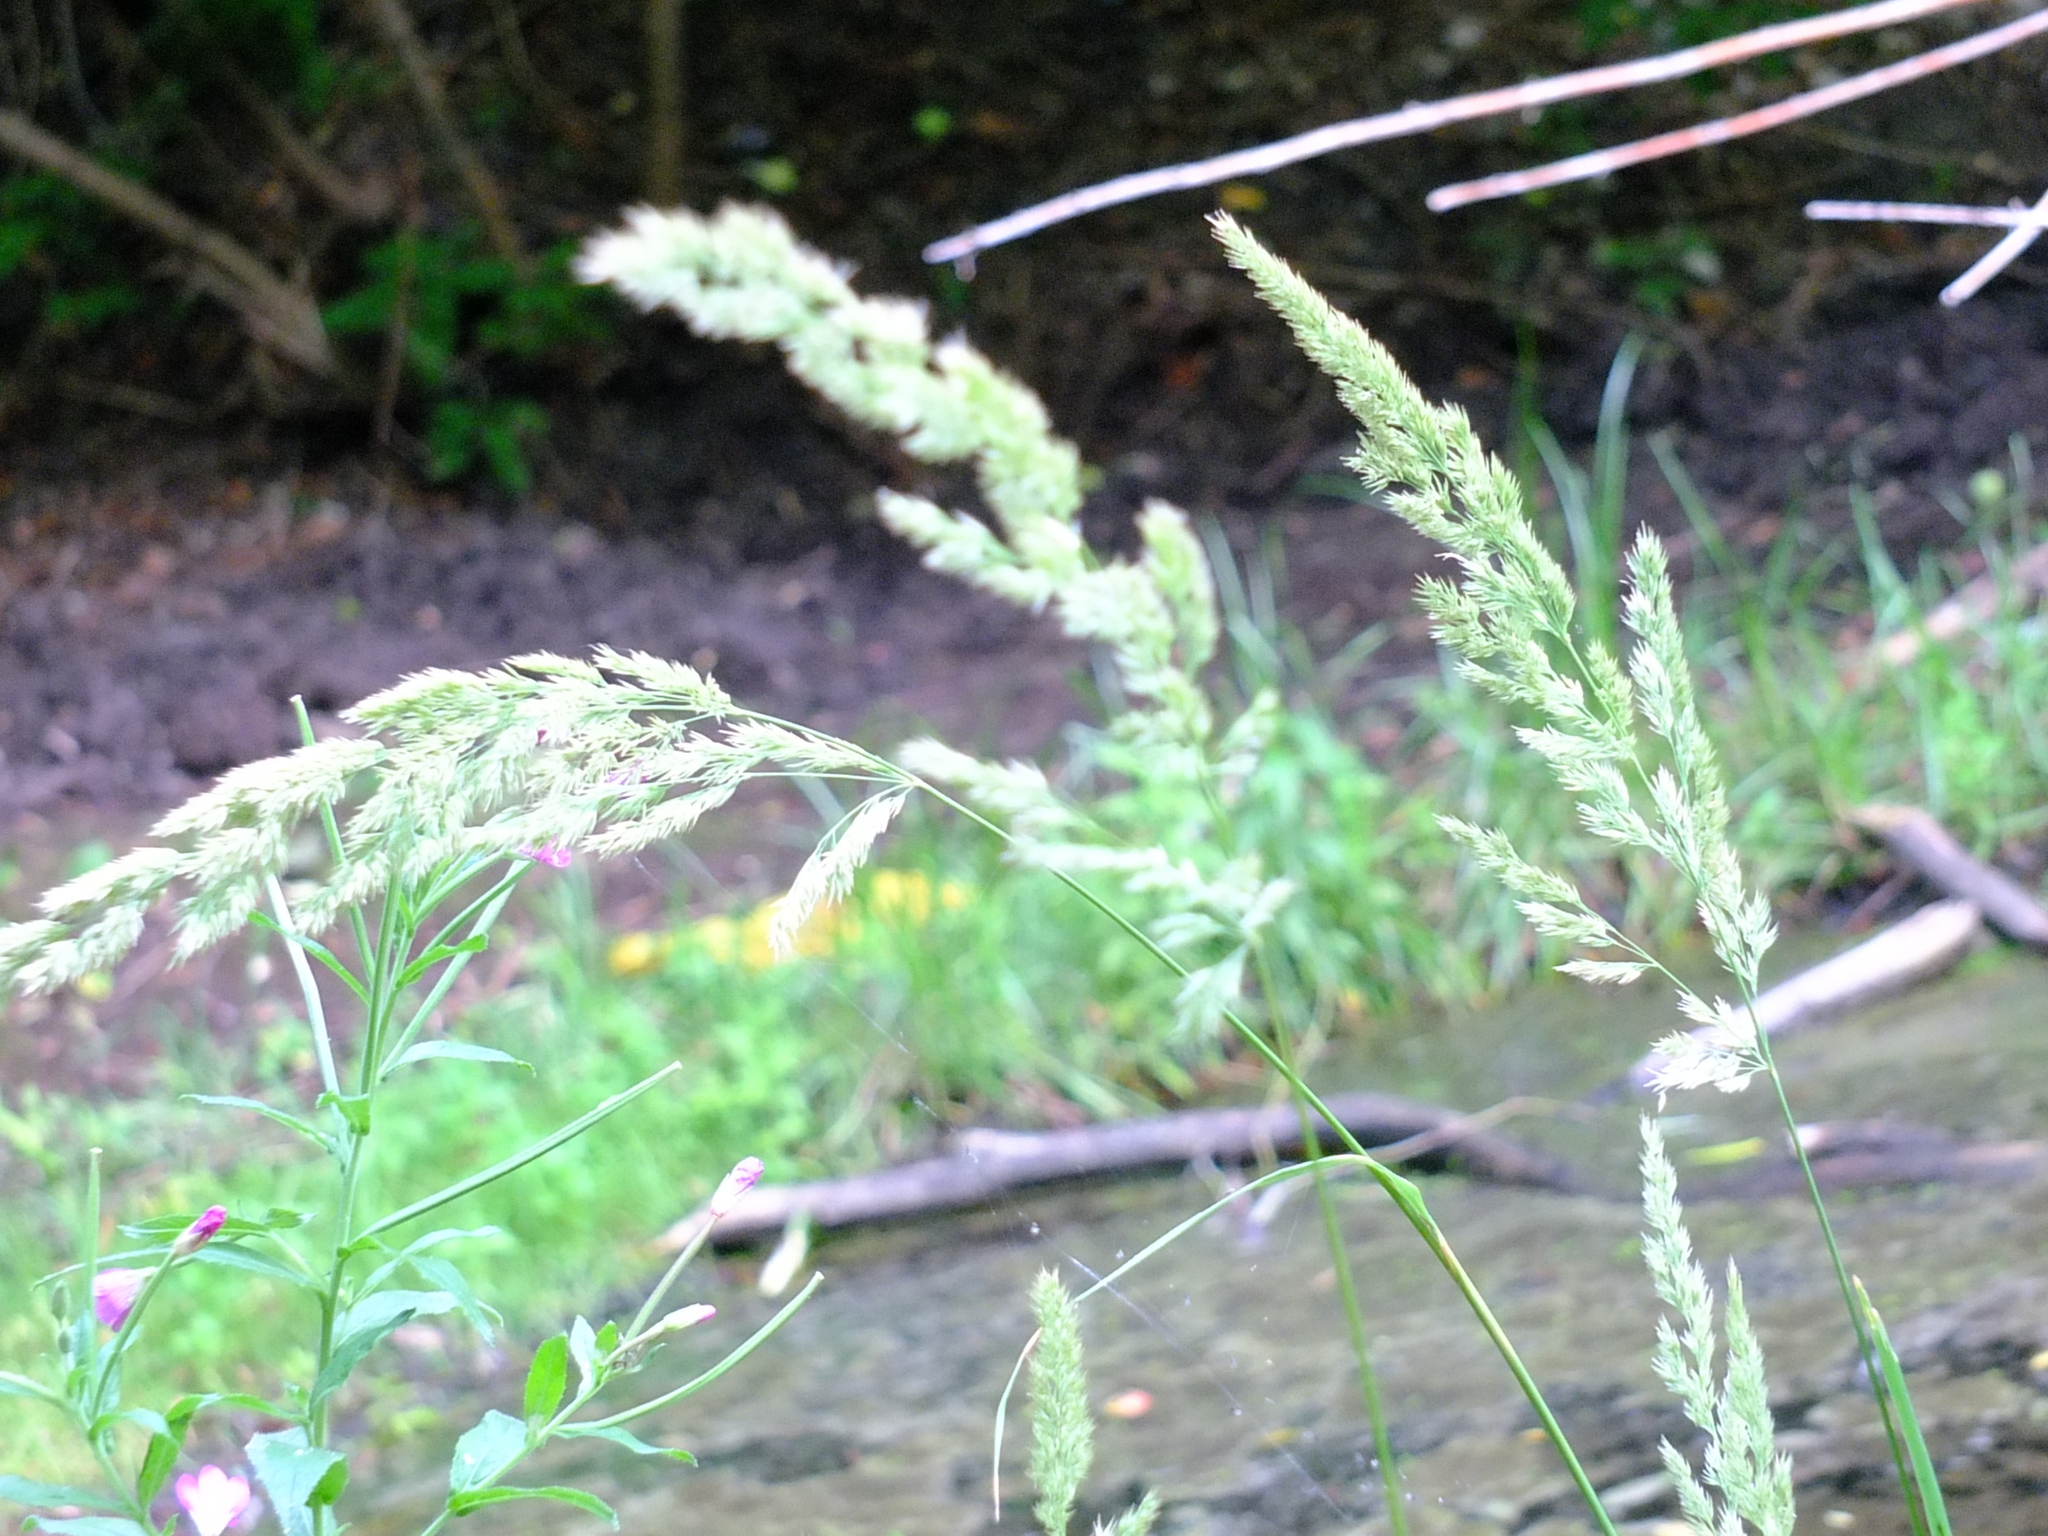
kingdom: Plantae
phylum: Tracheophyta
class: Liliopsida
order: Poales
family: Poaceae
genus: Calamagrostis
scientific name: Calamagrostis epigejos
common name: Wood small-reed
